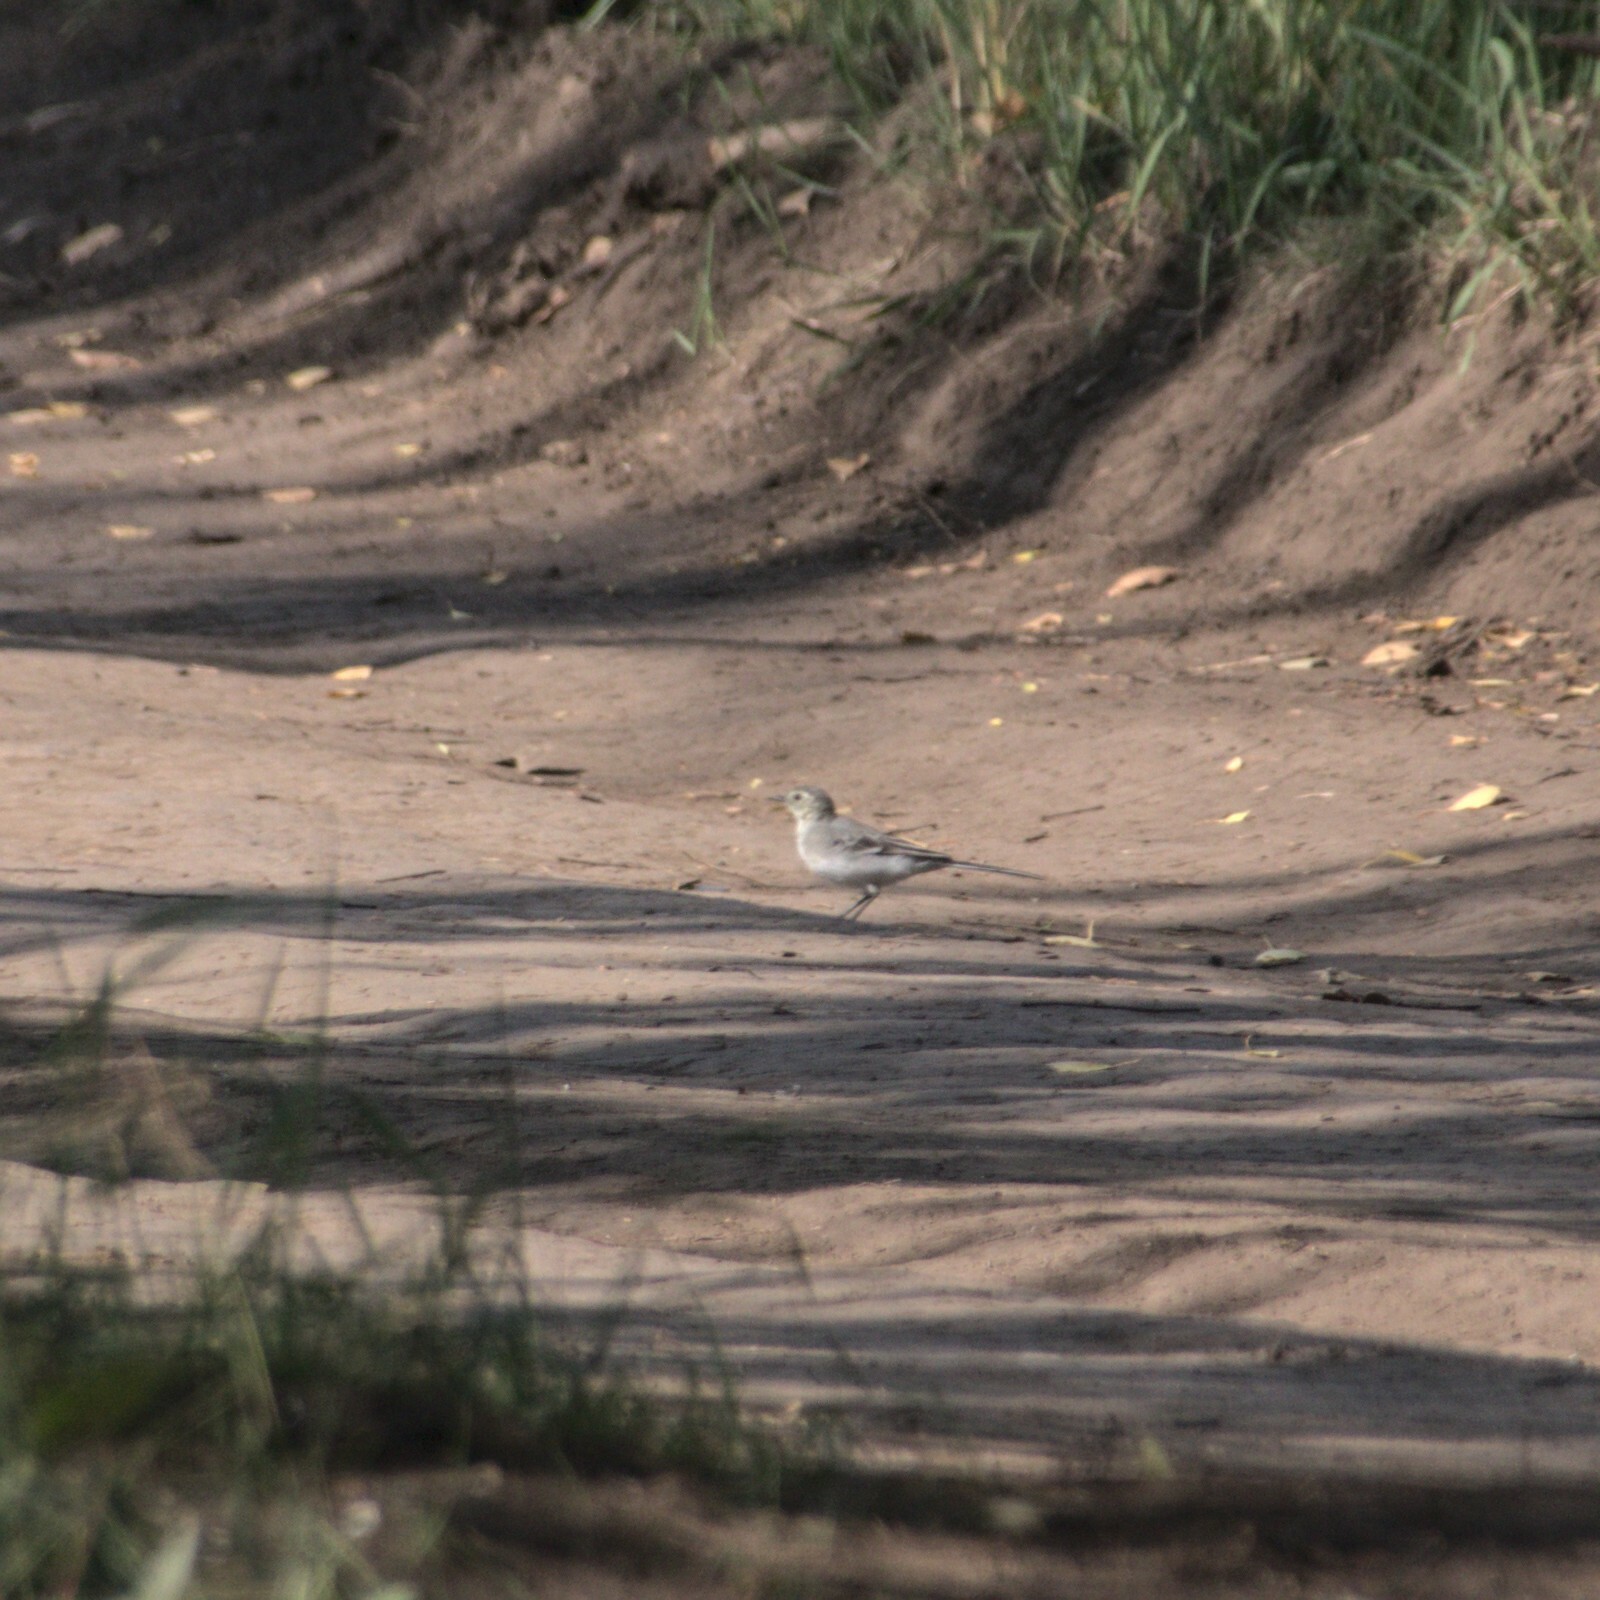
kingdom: Animalia
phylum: Chordata
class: Aves
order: Passeriformes
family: Motacillidae
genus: Motacilla
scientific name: Motacilla alba
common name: White wagtail
